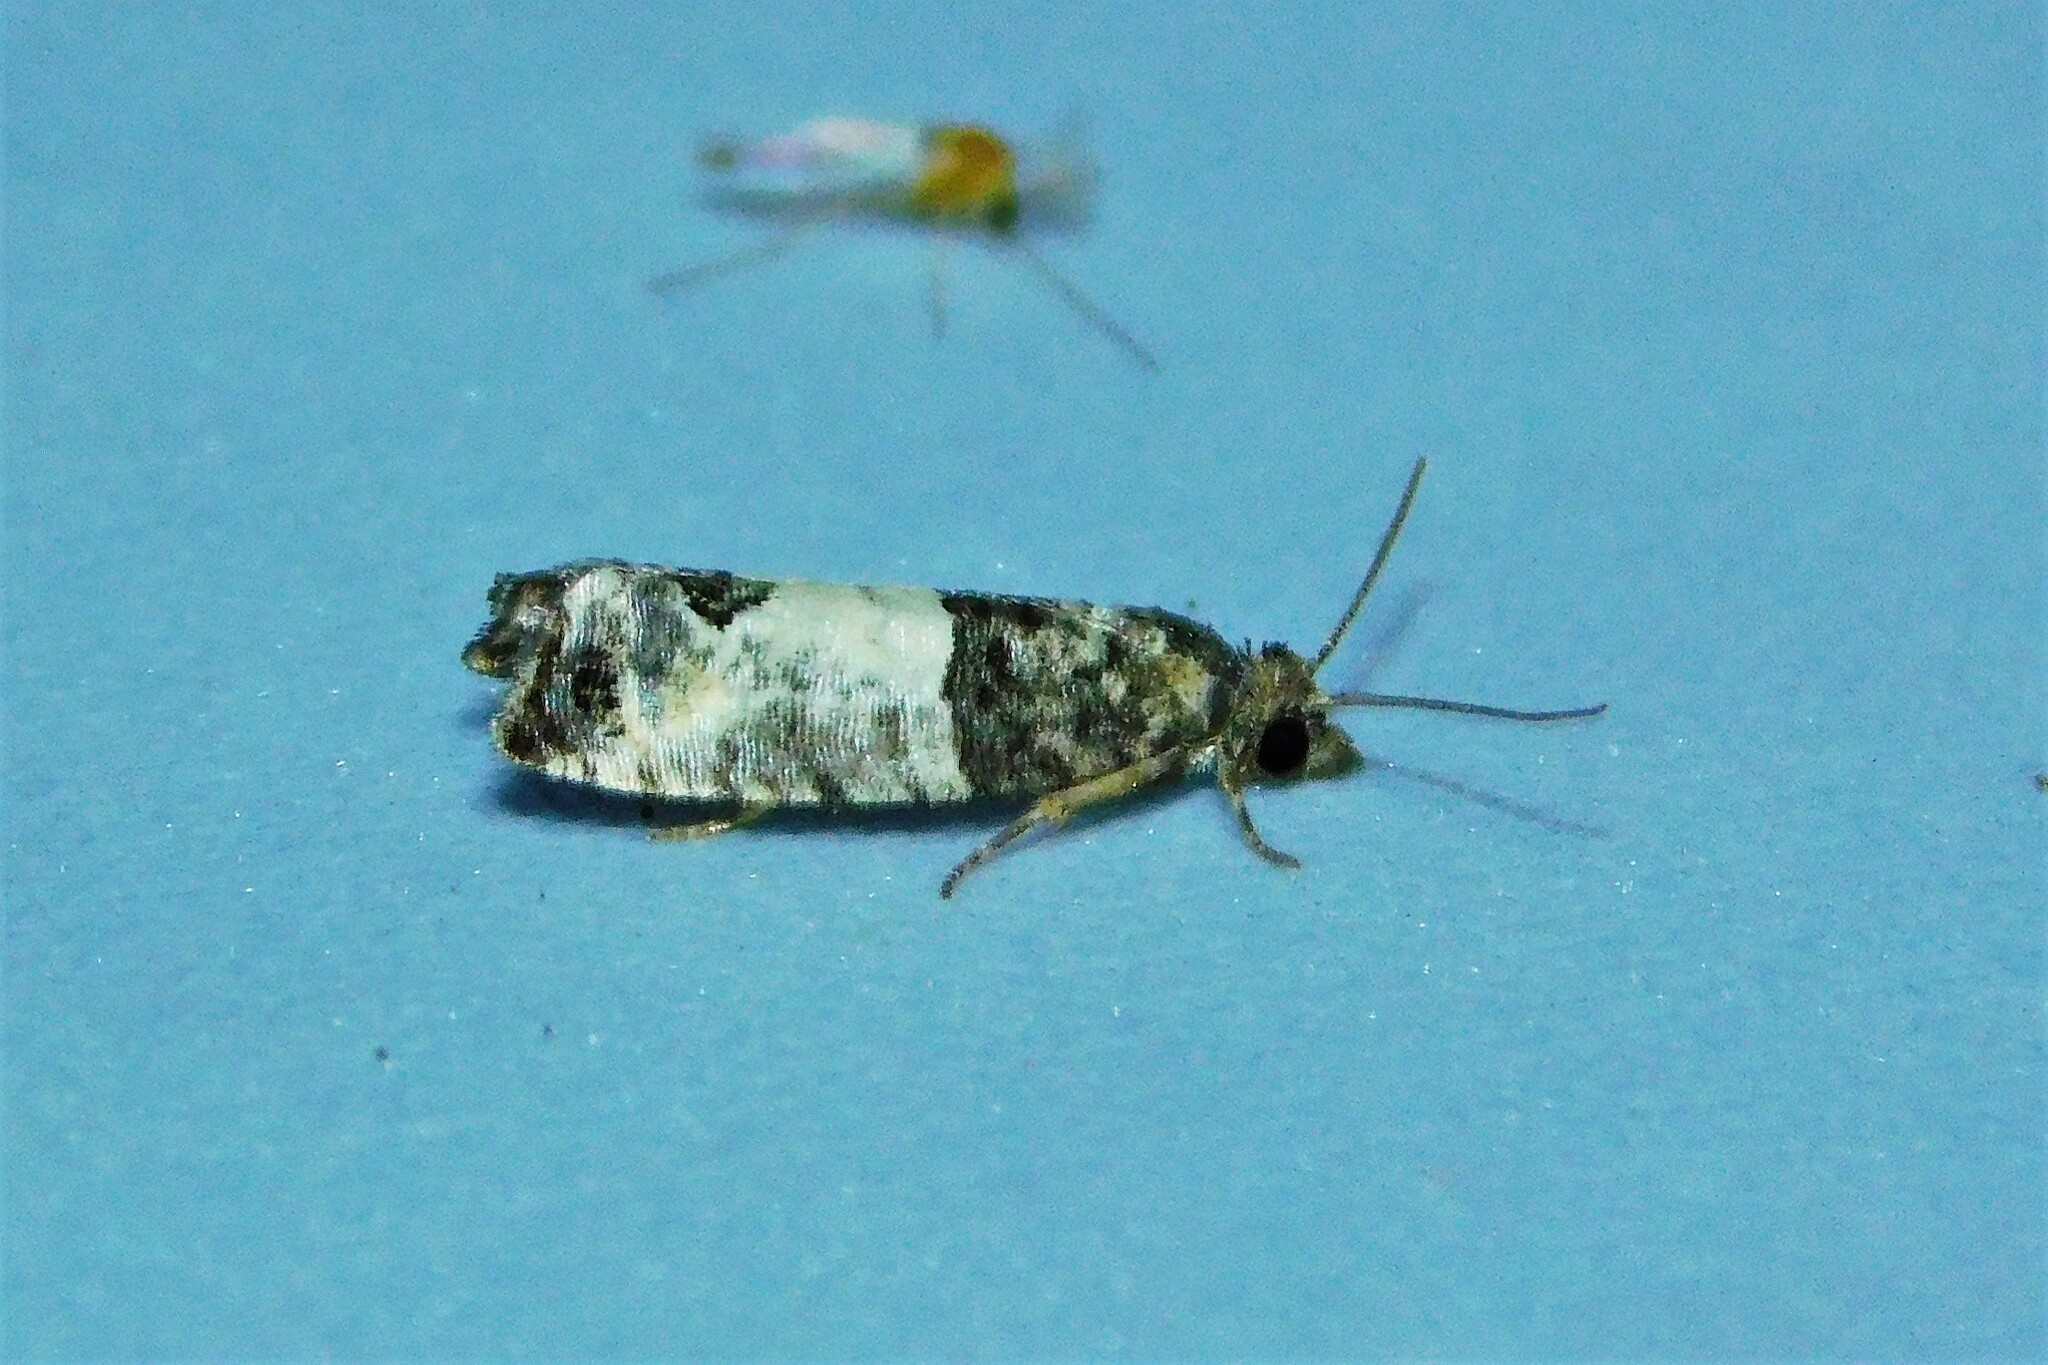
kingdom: Animalia
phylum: Arthropoda
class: Insecta
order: Lepidoptera
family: Tortricidae
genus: Spilonota
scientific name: Spilonota ocellana
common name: Bud moth
